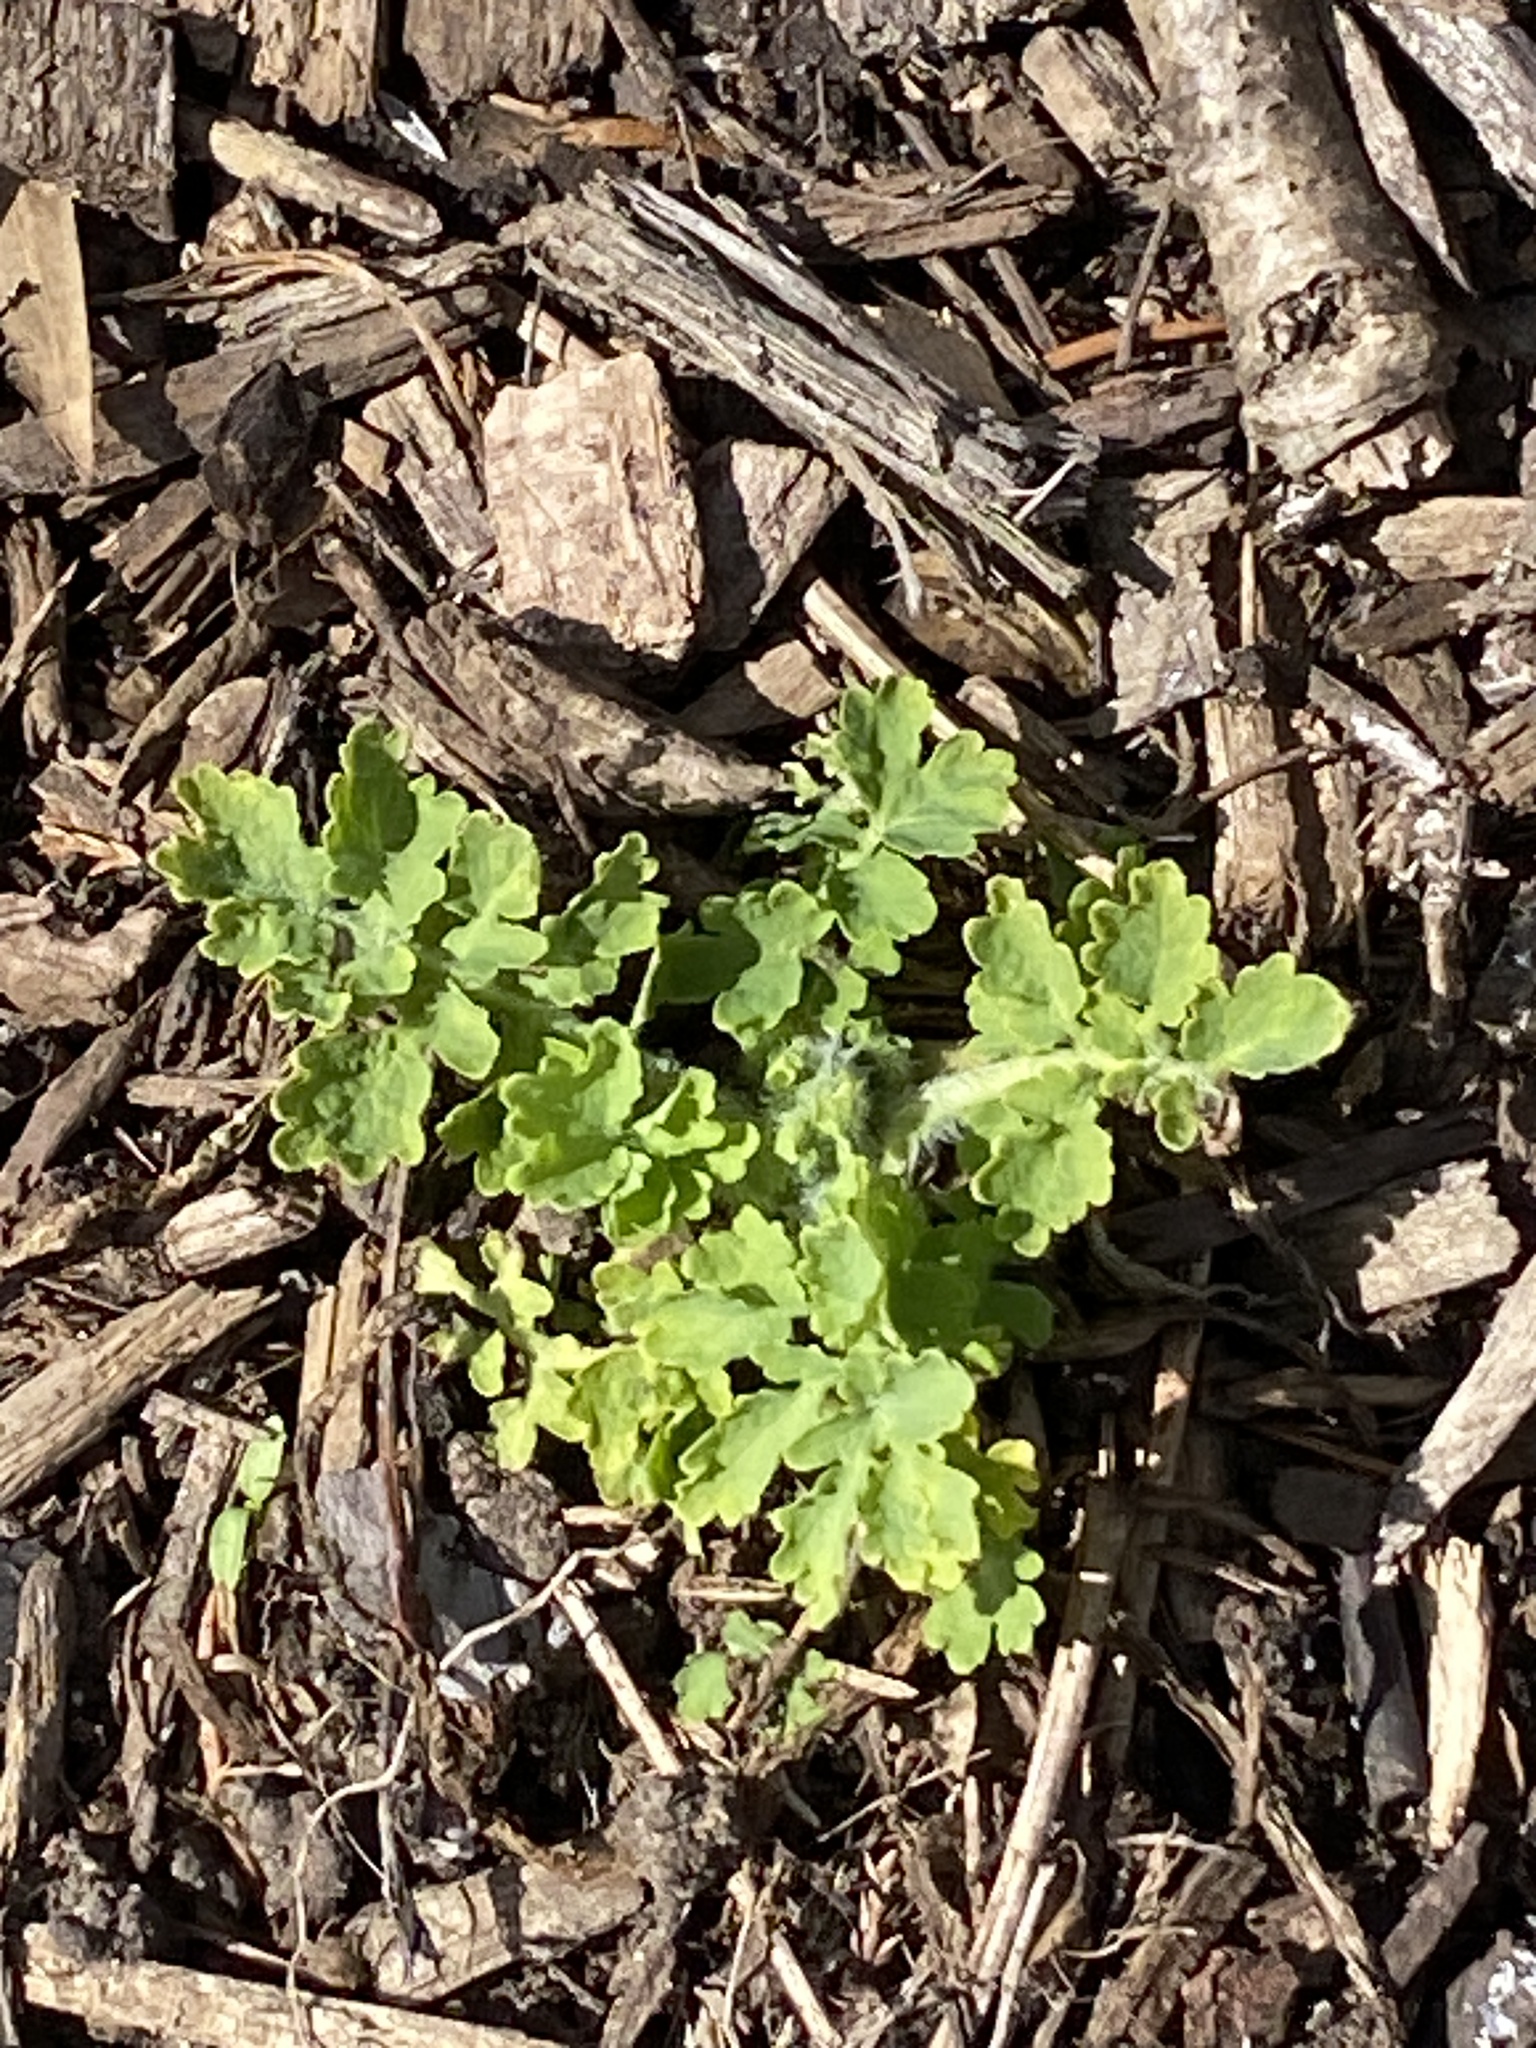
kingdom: Plantae
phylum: Tracheophyta
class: Magnoliopsida
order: Ranunculales
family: Papaveraceae
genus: Chelidonium
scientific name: Chelidonium majus
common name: Greater celandine
